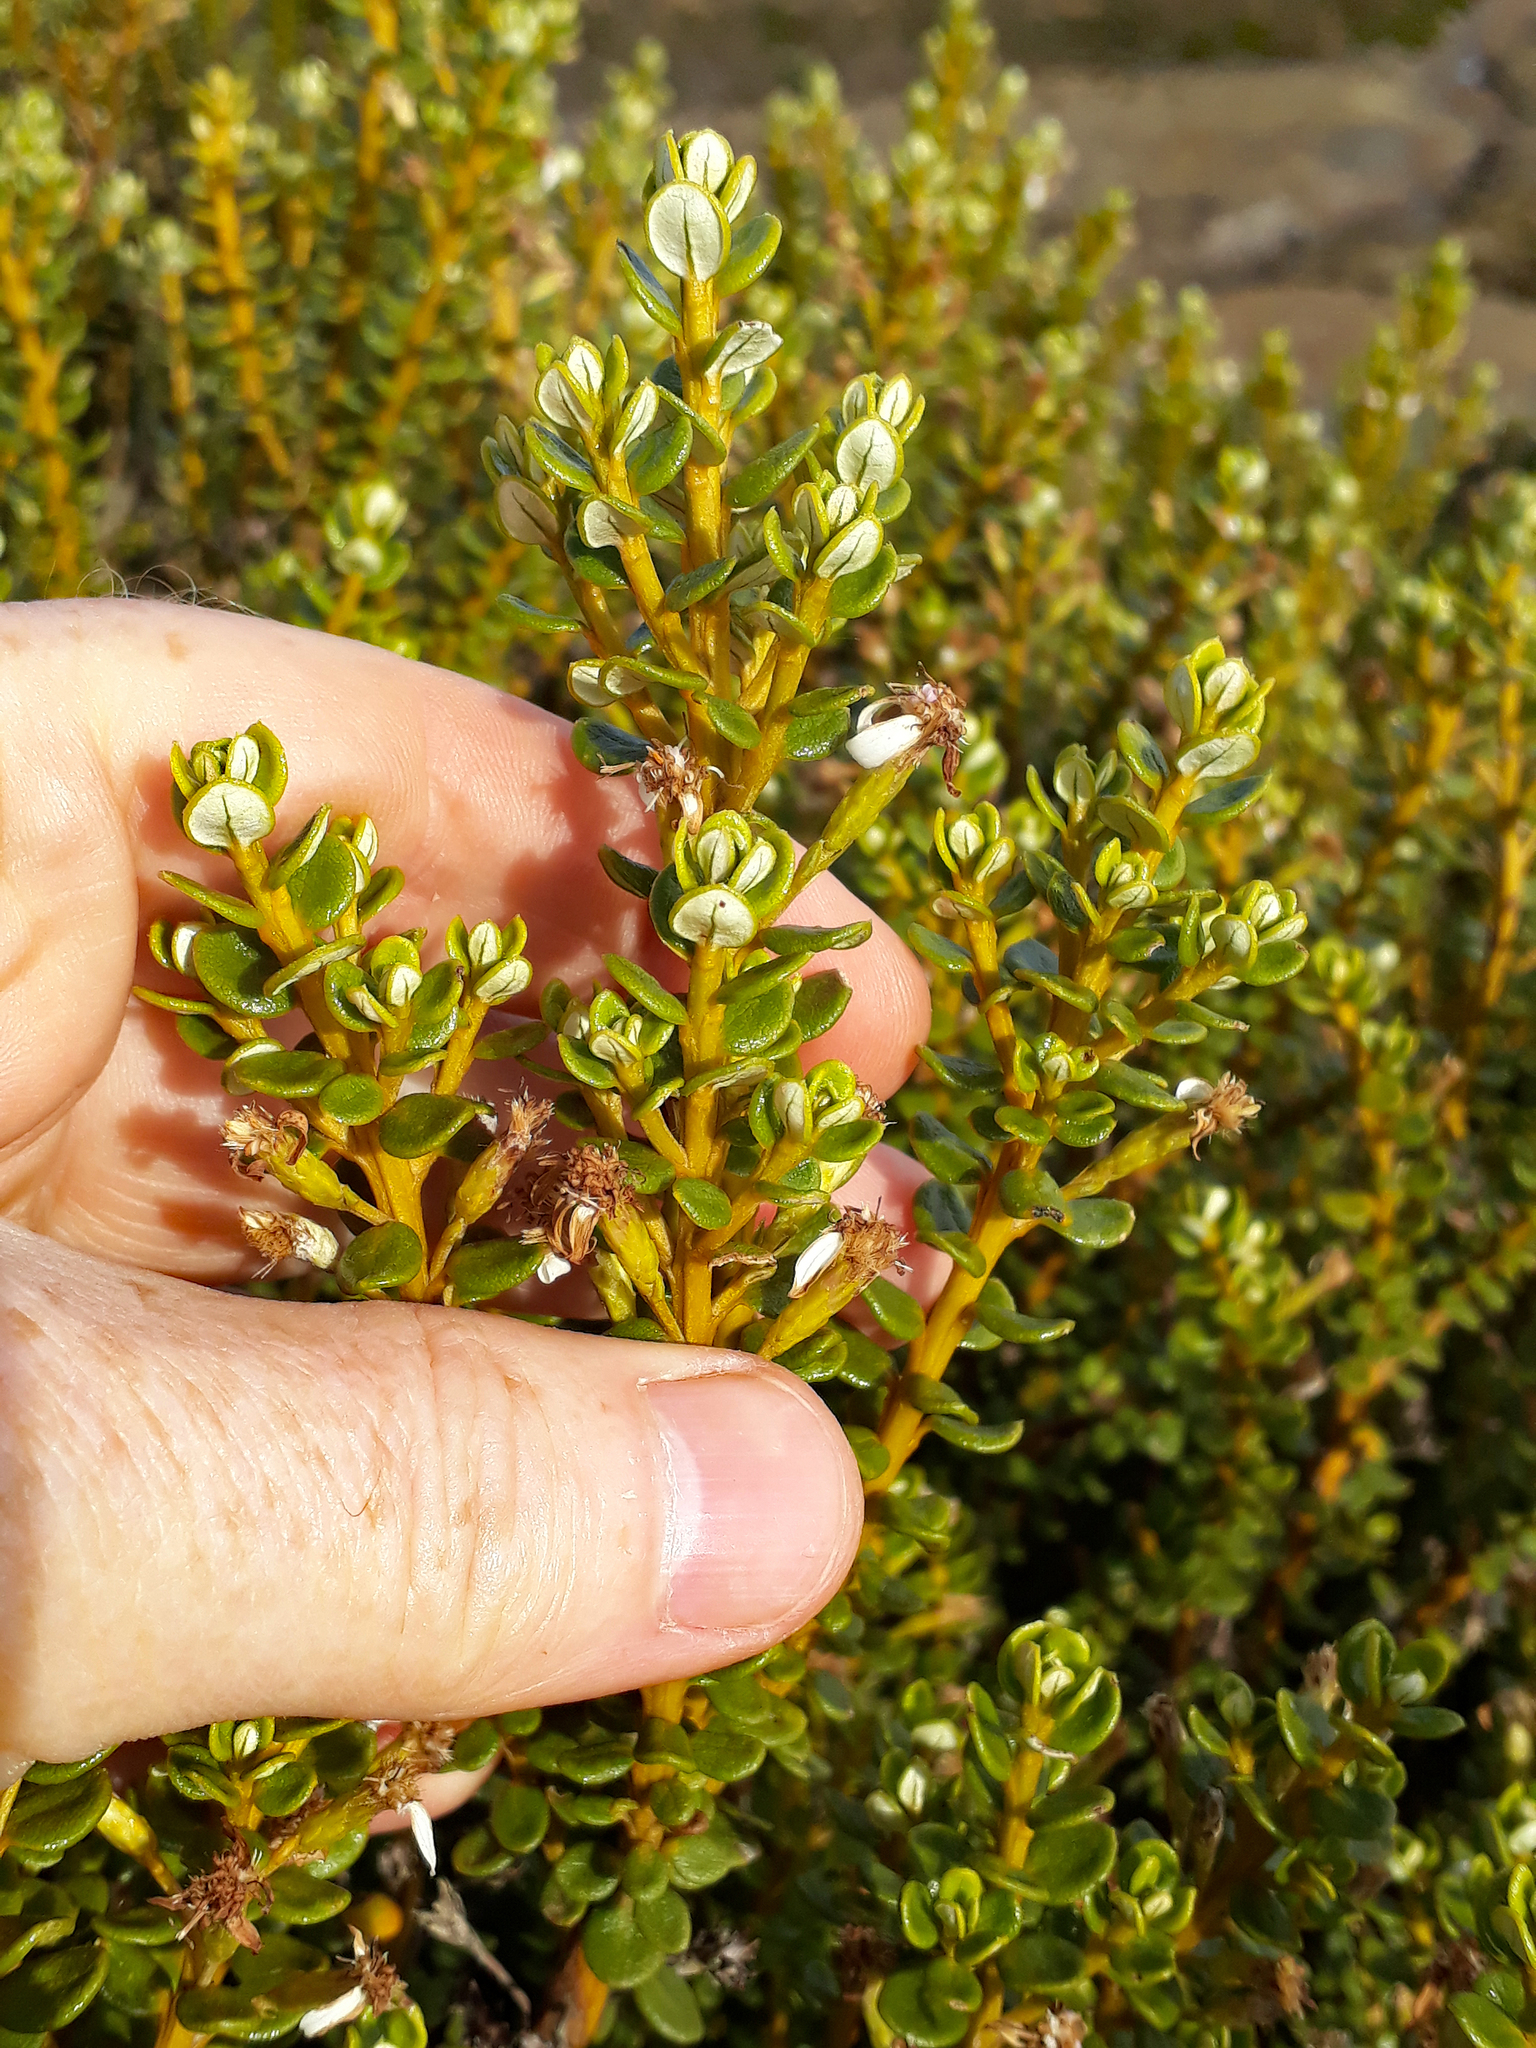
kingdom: Plantae
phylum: Tracheophyta
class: Magnoliopsida
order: Asterales
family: Asteraceae
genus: Olearia
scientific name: Olearia nummularifolia
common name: Sticky daisybush
